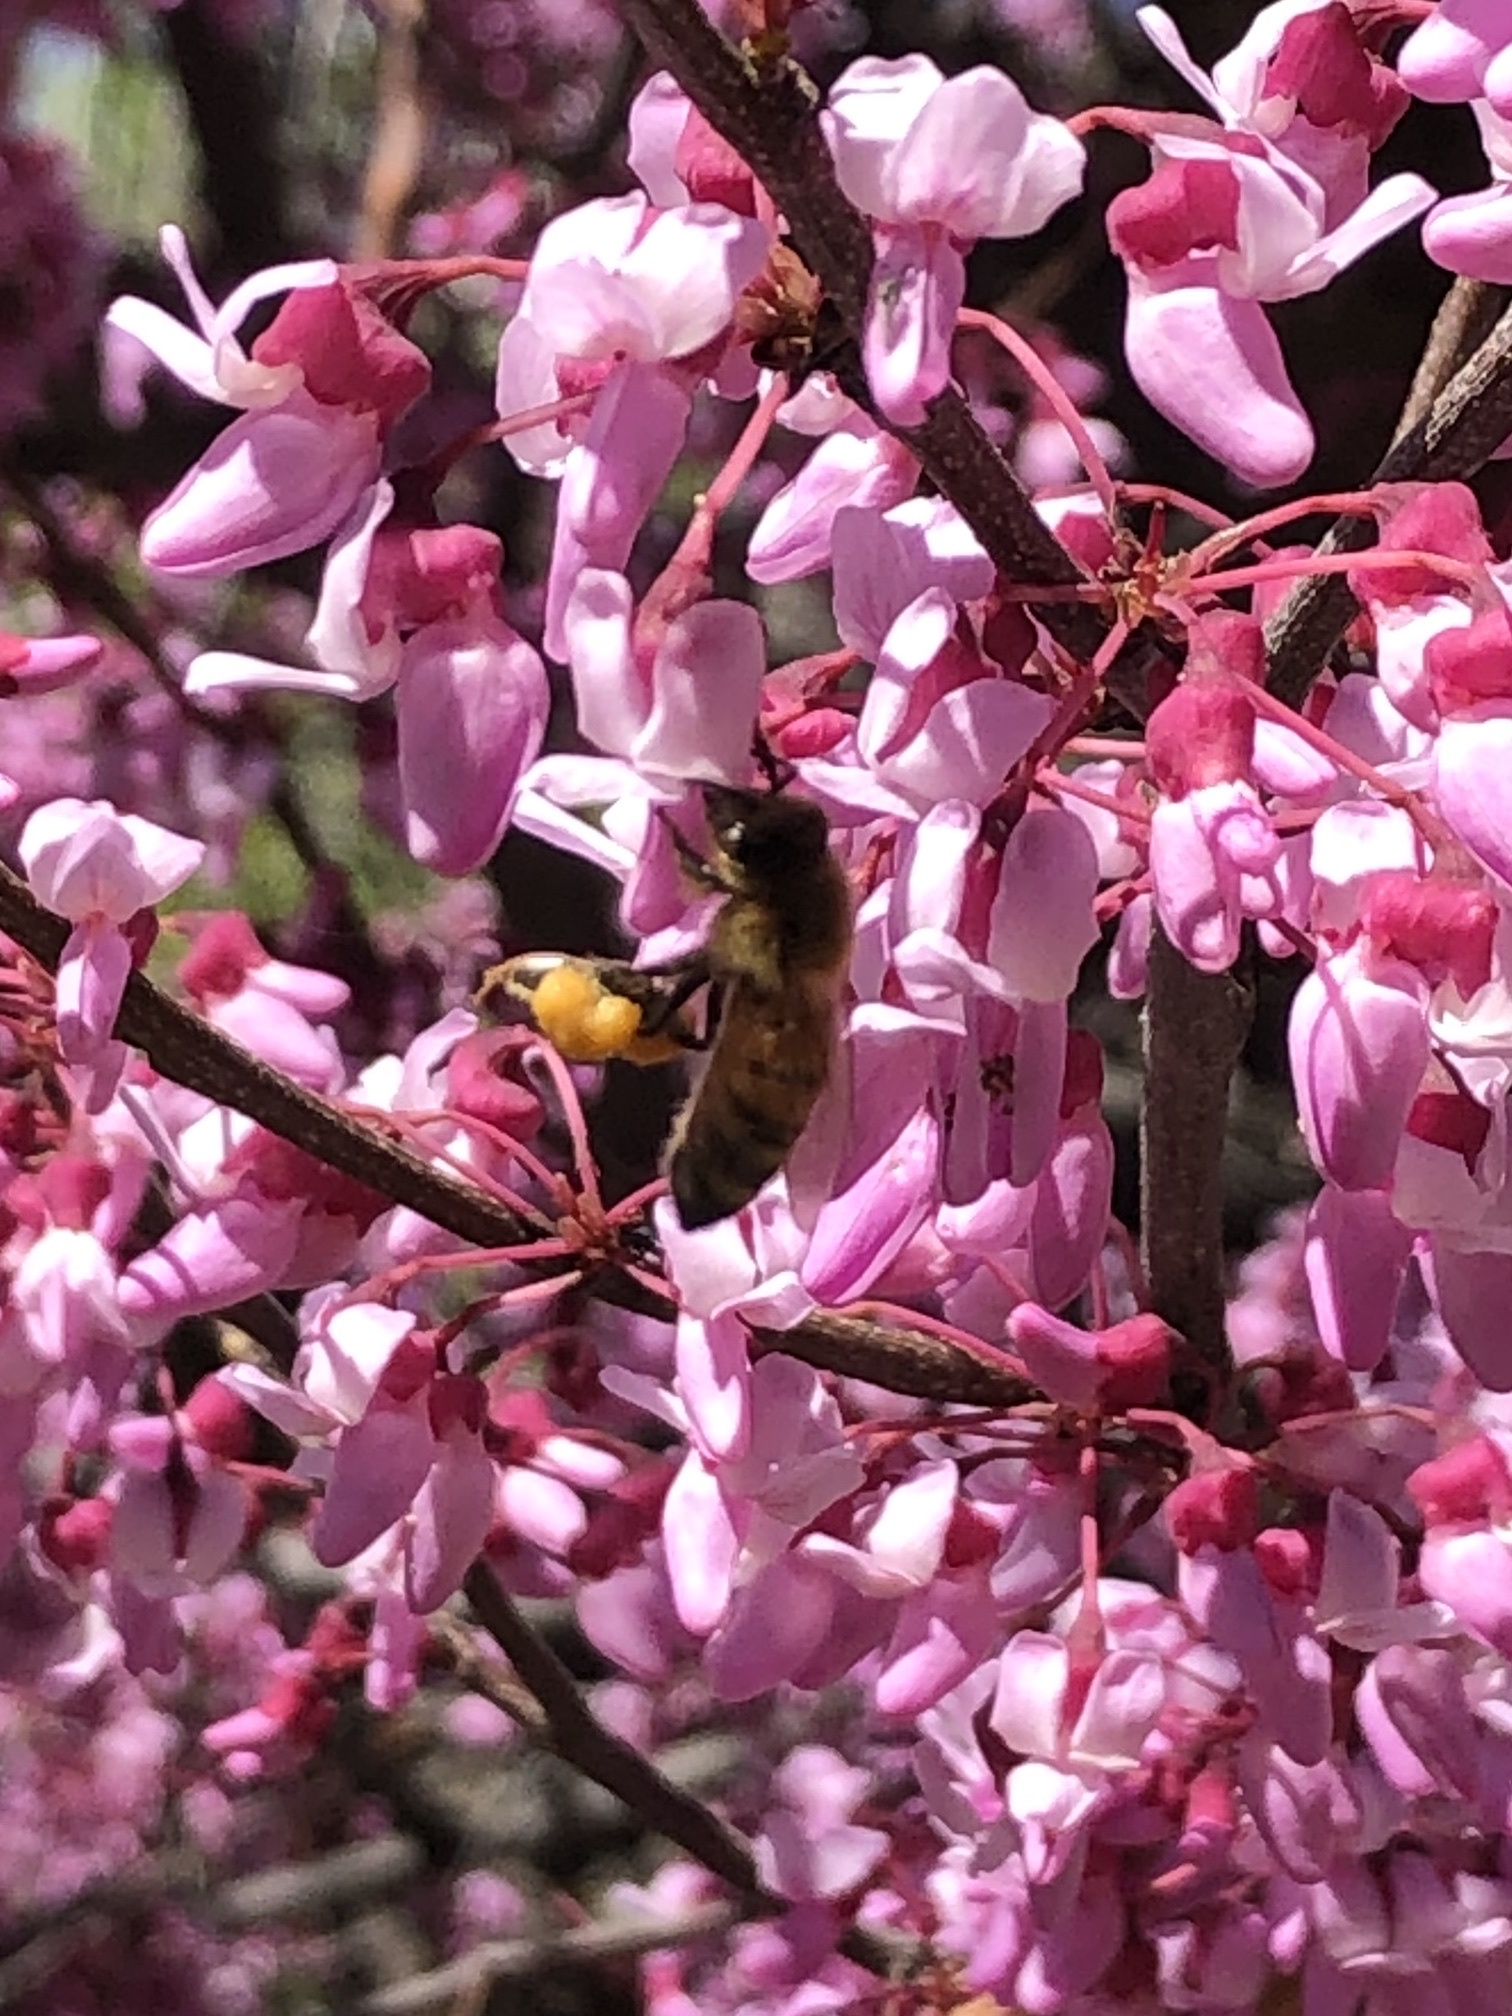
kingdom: Animalia
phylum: Arthropoda
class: Insecta
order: Hymenoptera
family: Apidae
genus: Apis
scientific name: Apis mellifera
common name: Honey bee
